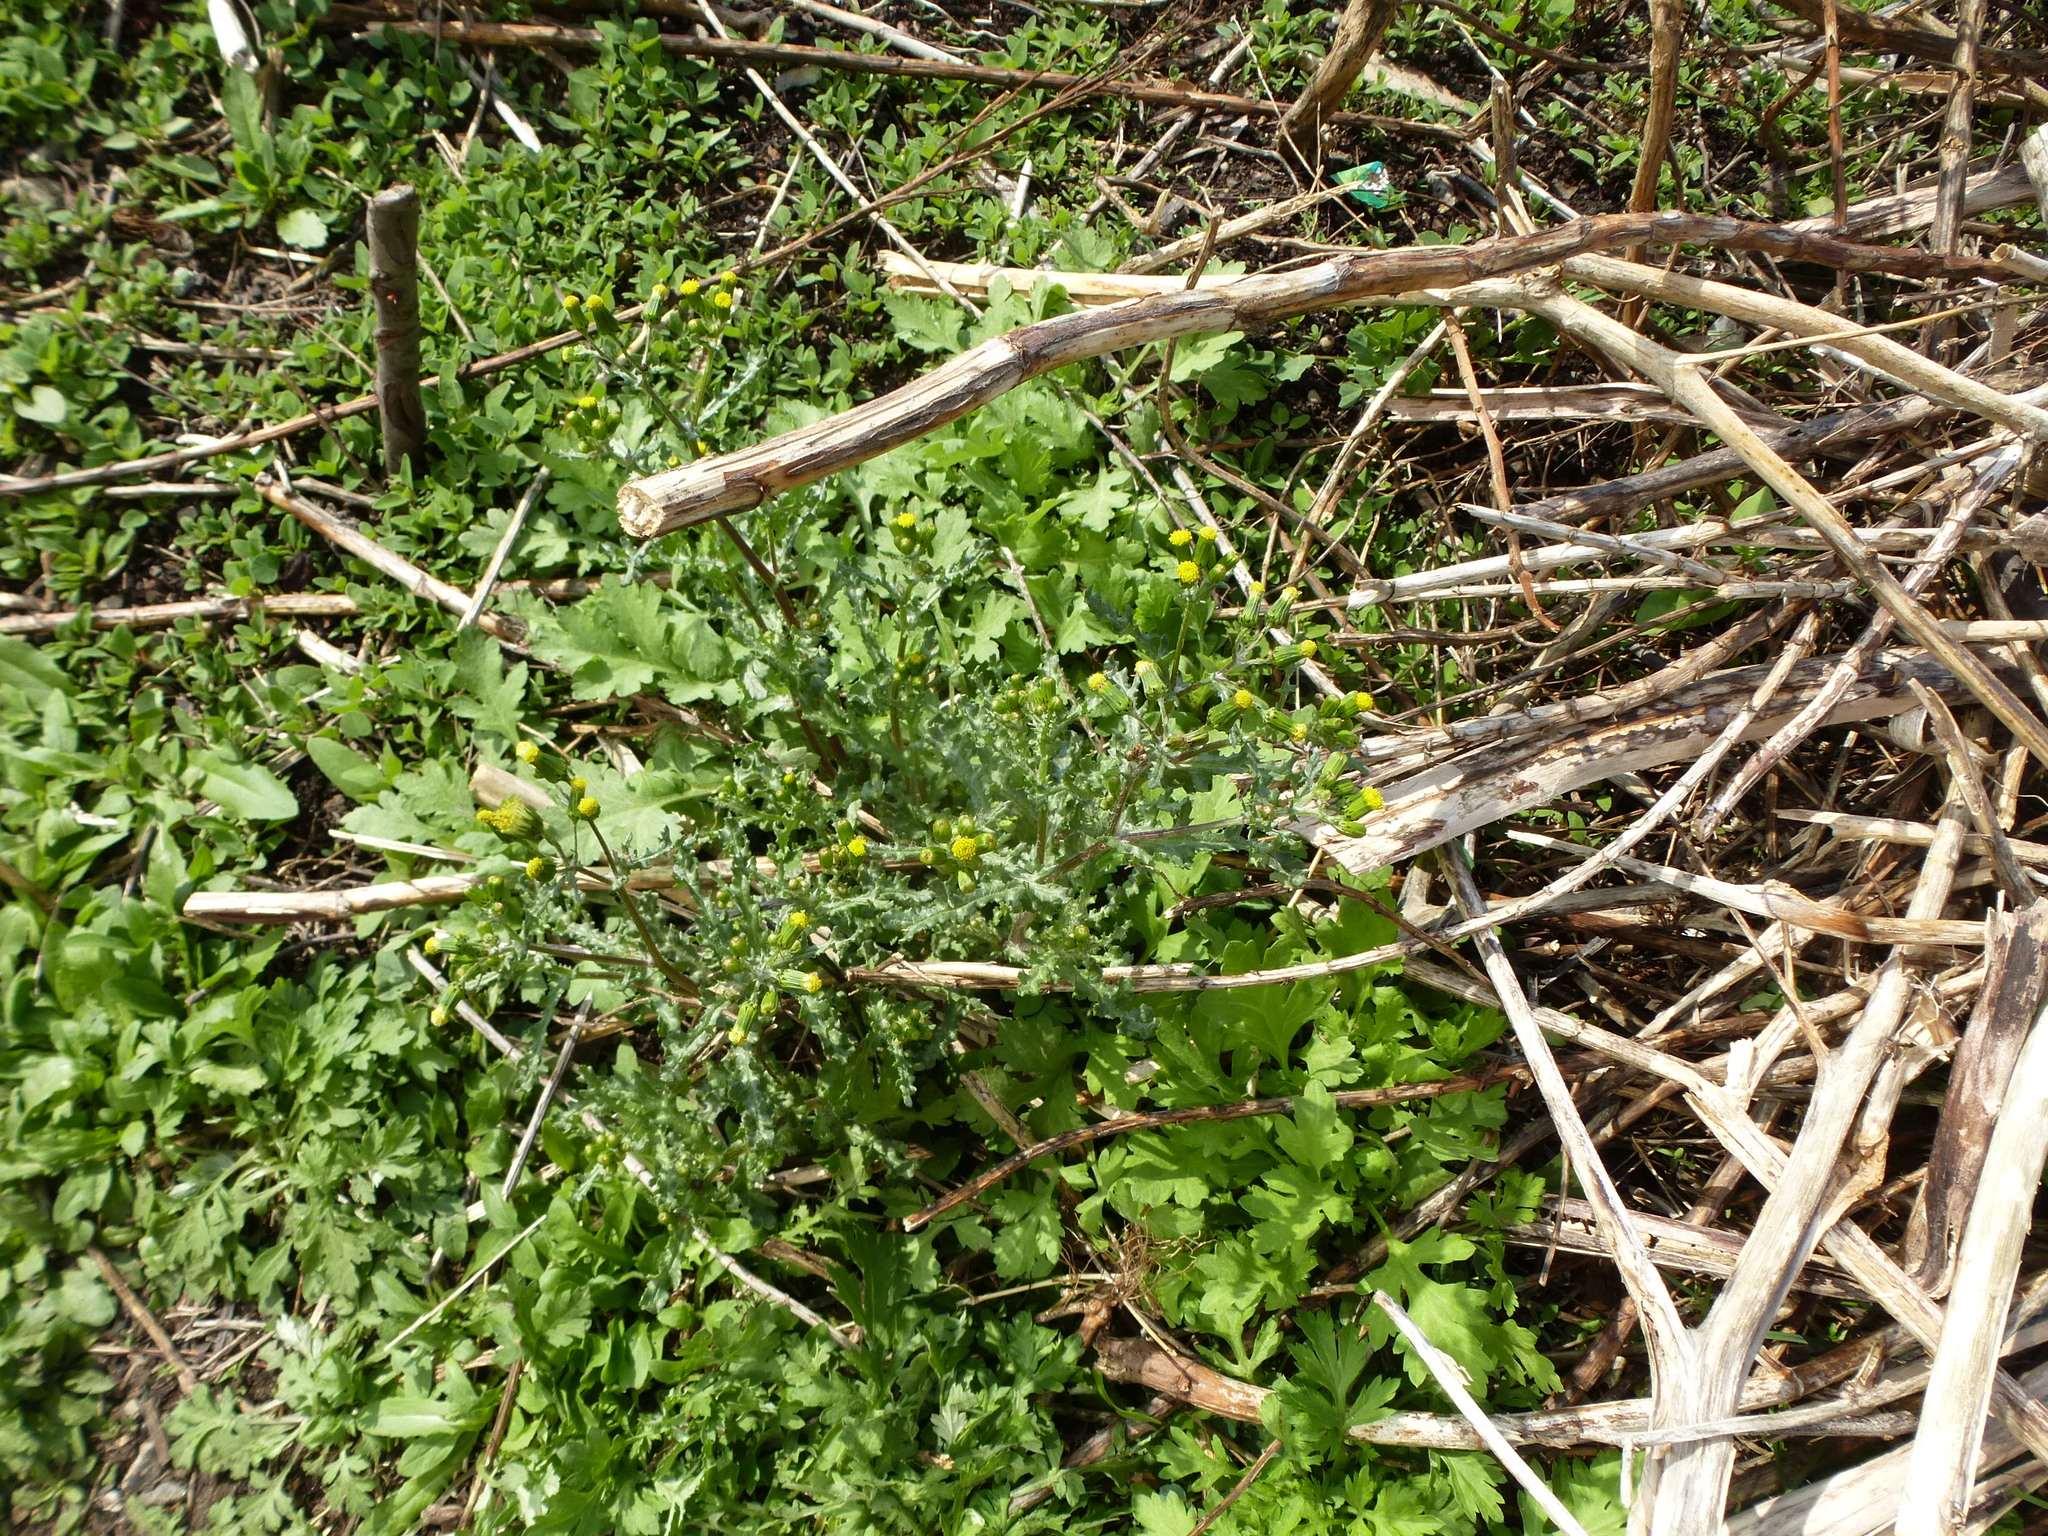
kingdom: Plantae
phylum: Tracheophyta
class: Magnoliopsida
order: Asterales
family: Asteraceae
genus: Senecio
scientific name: Senecio vulgaris
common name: Old-man-in-the-spring
